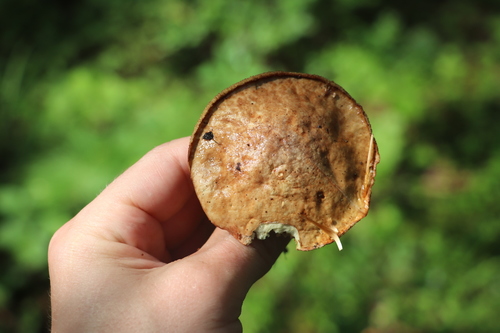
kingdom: Fungi
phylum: Basidiomycota
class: Agaricomycetes
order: Boletales
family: Suillaceae
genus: Suillus
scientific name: Suillus
